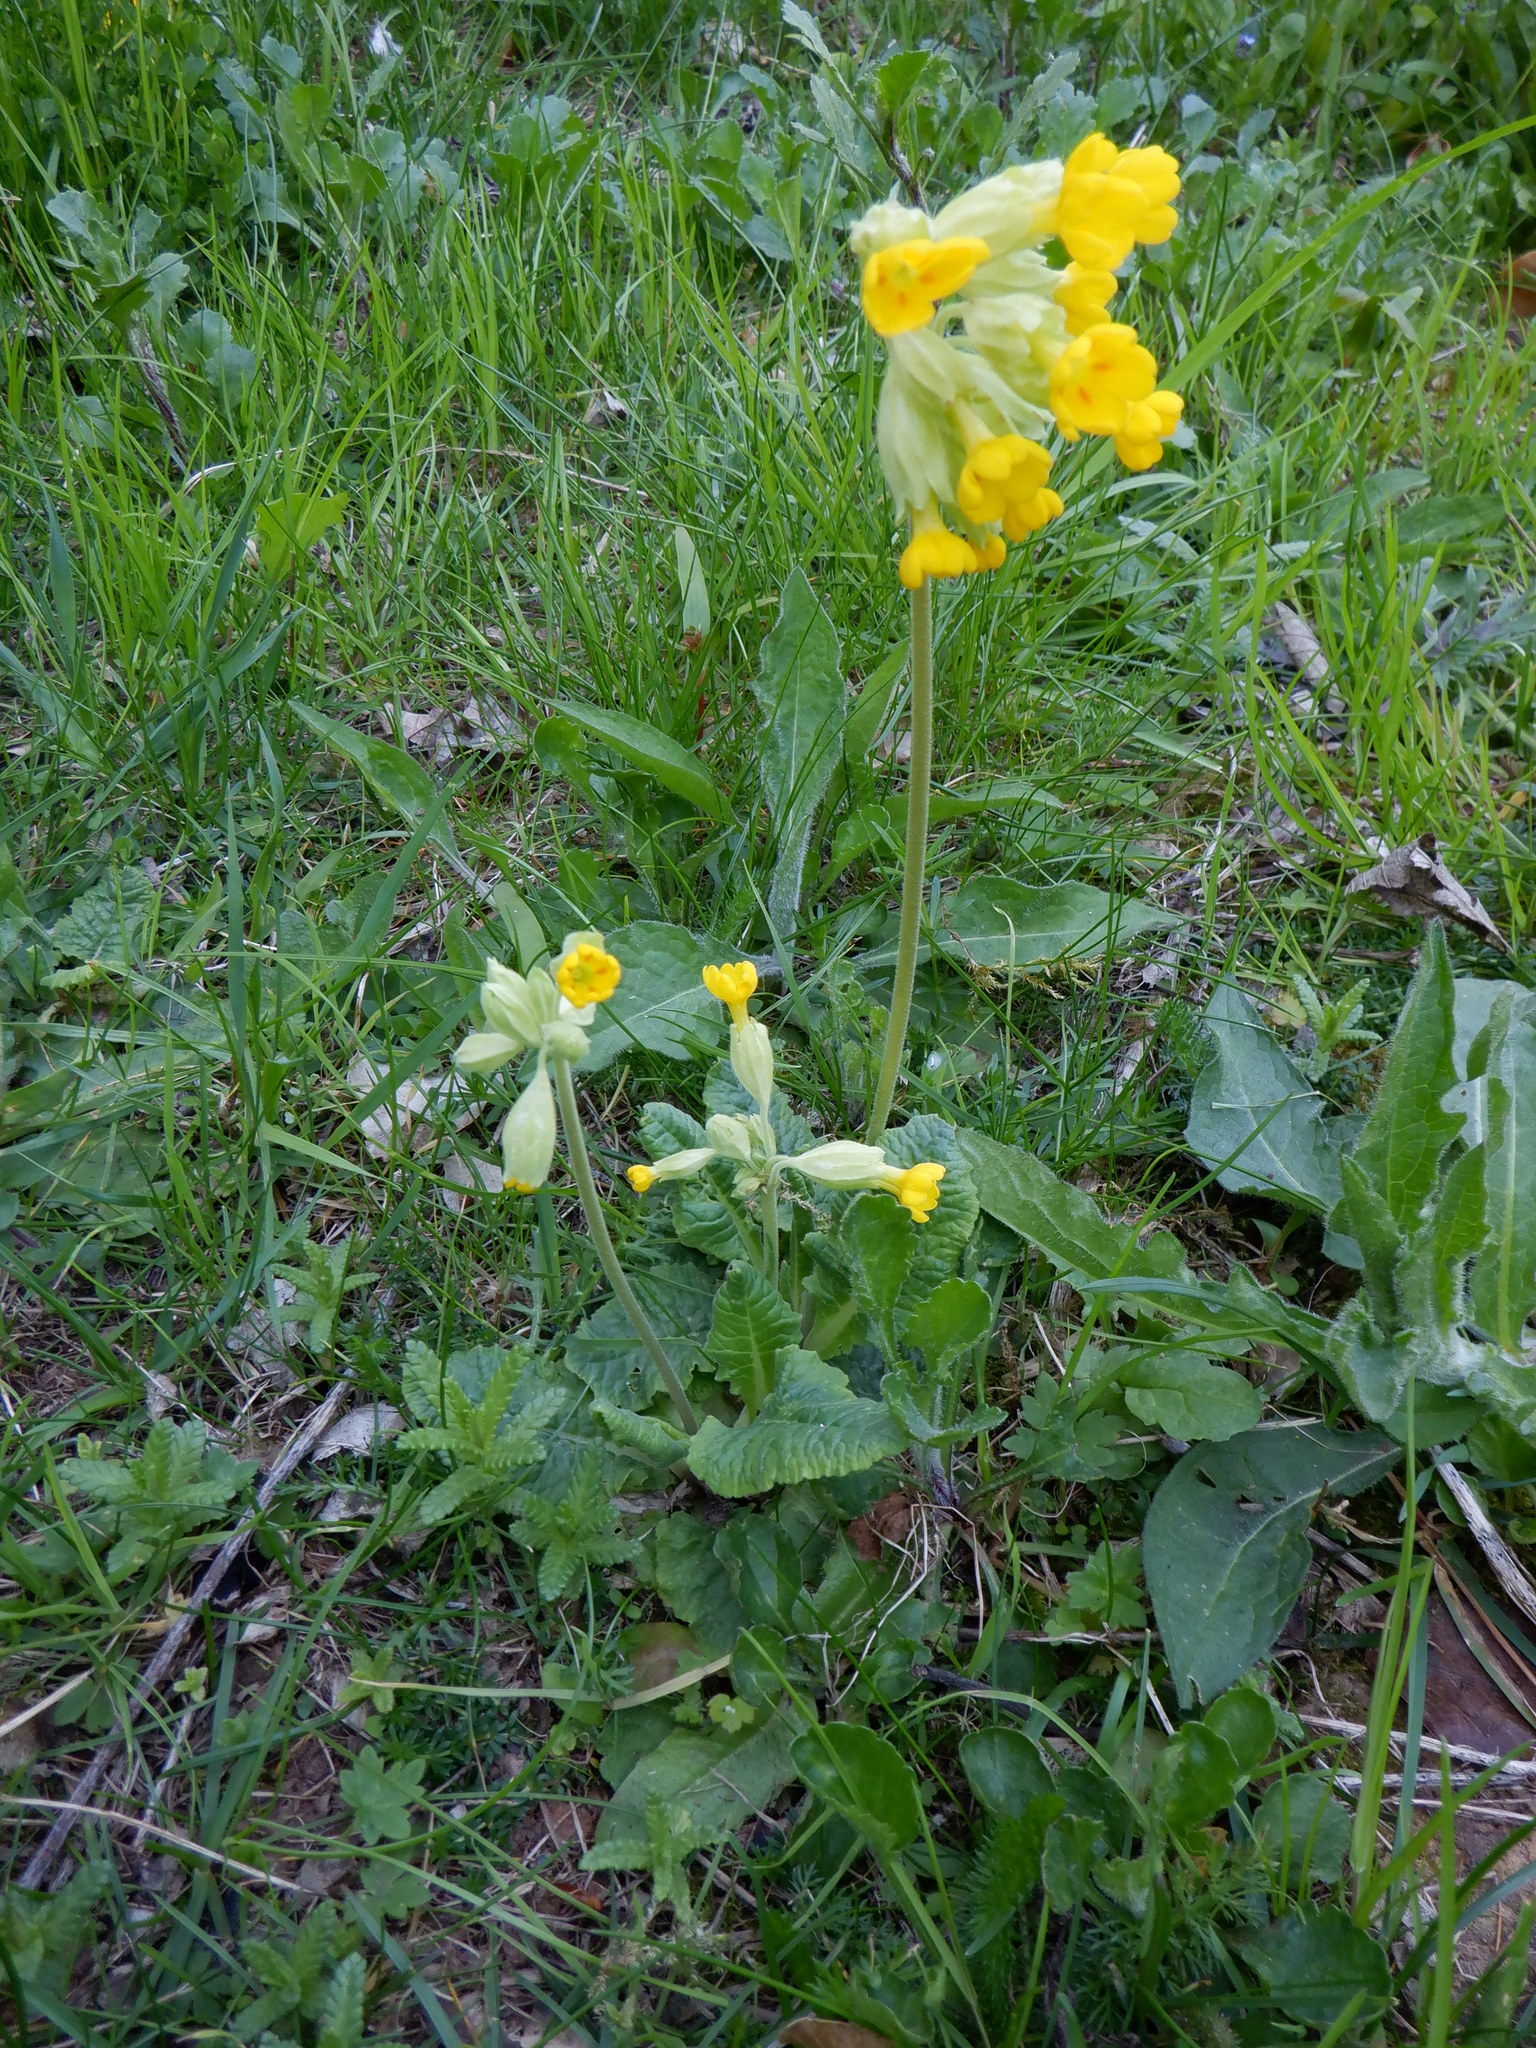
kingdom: Plantae
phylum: Tracheophyta
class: Magnoliopsida
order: Ericales
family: Primulaceae
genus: Primula
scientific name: Primula veris
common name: Cowslip
